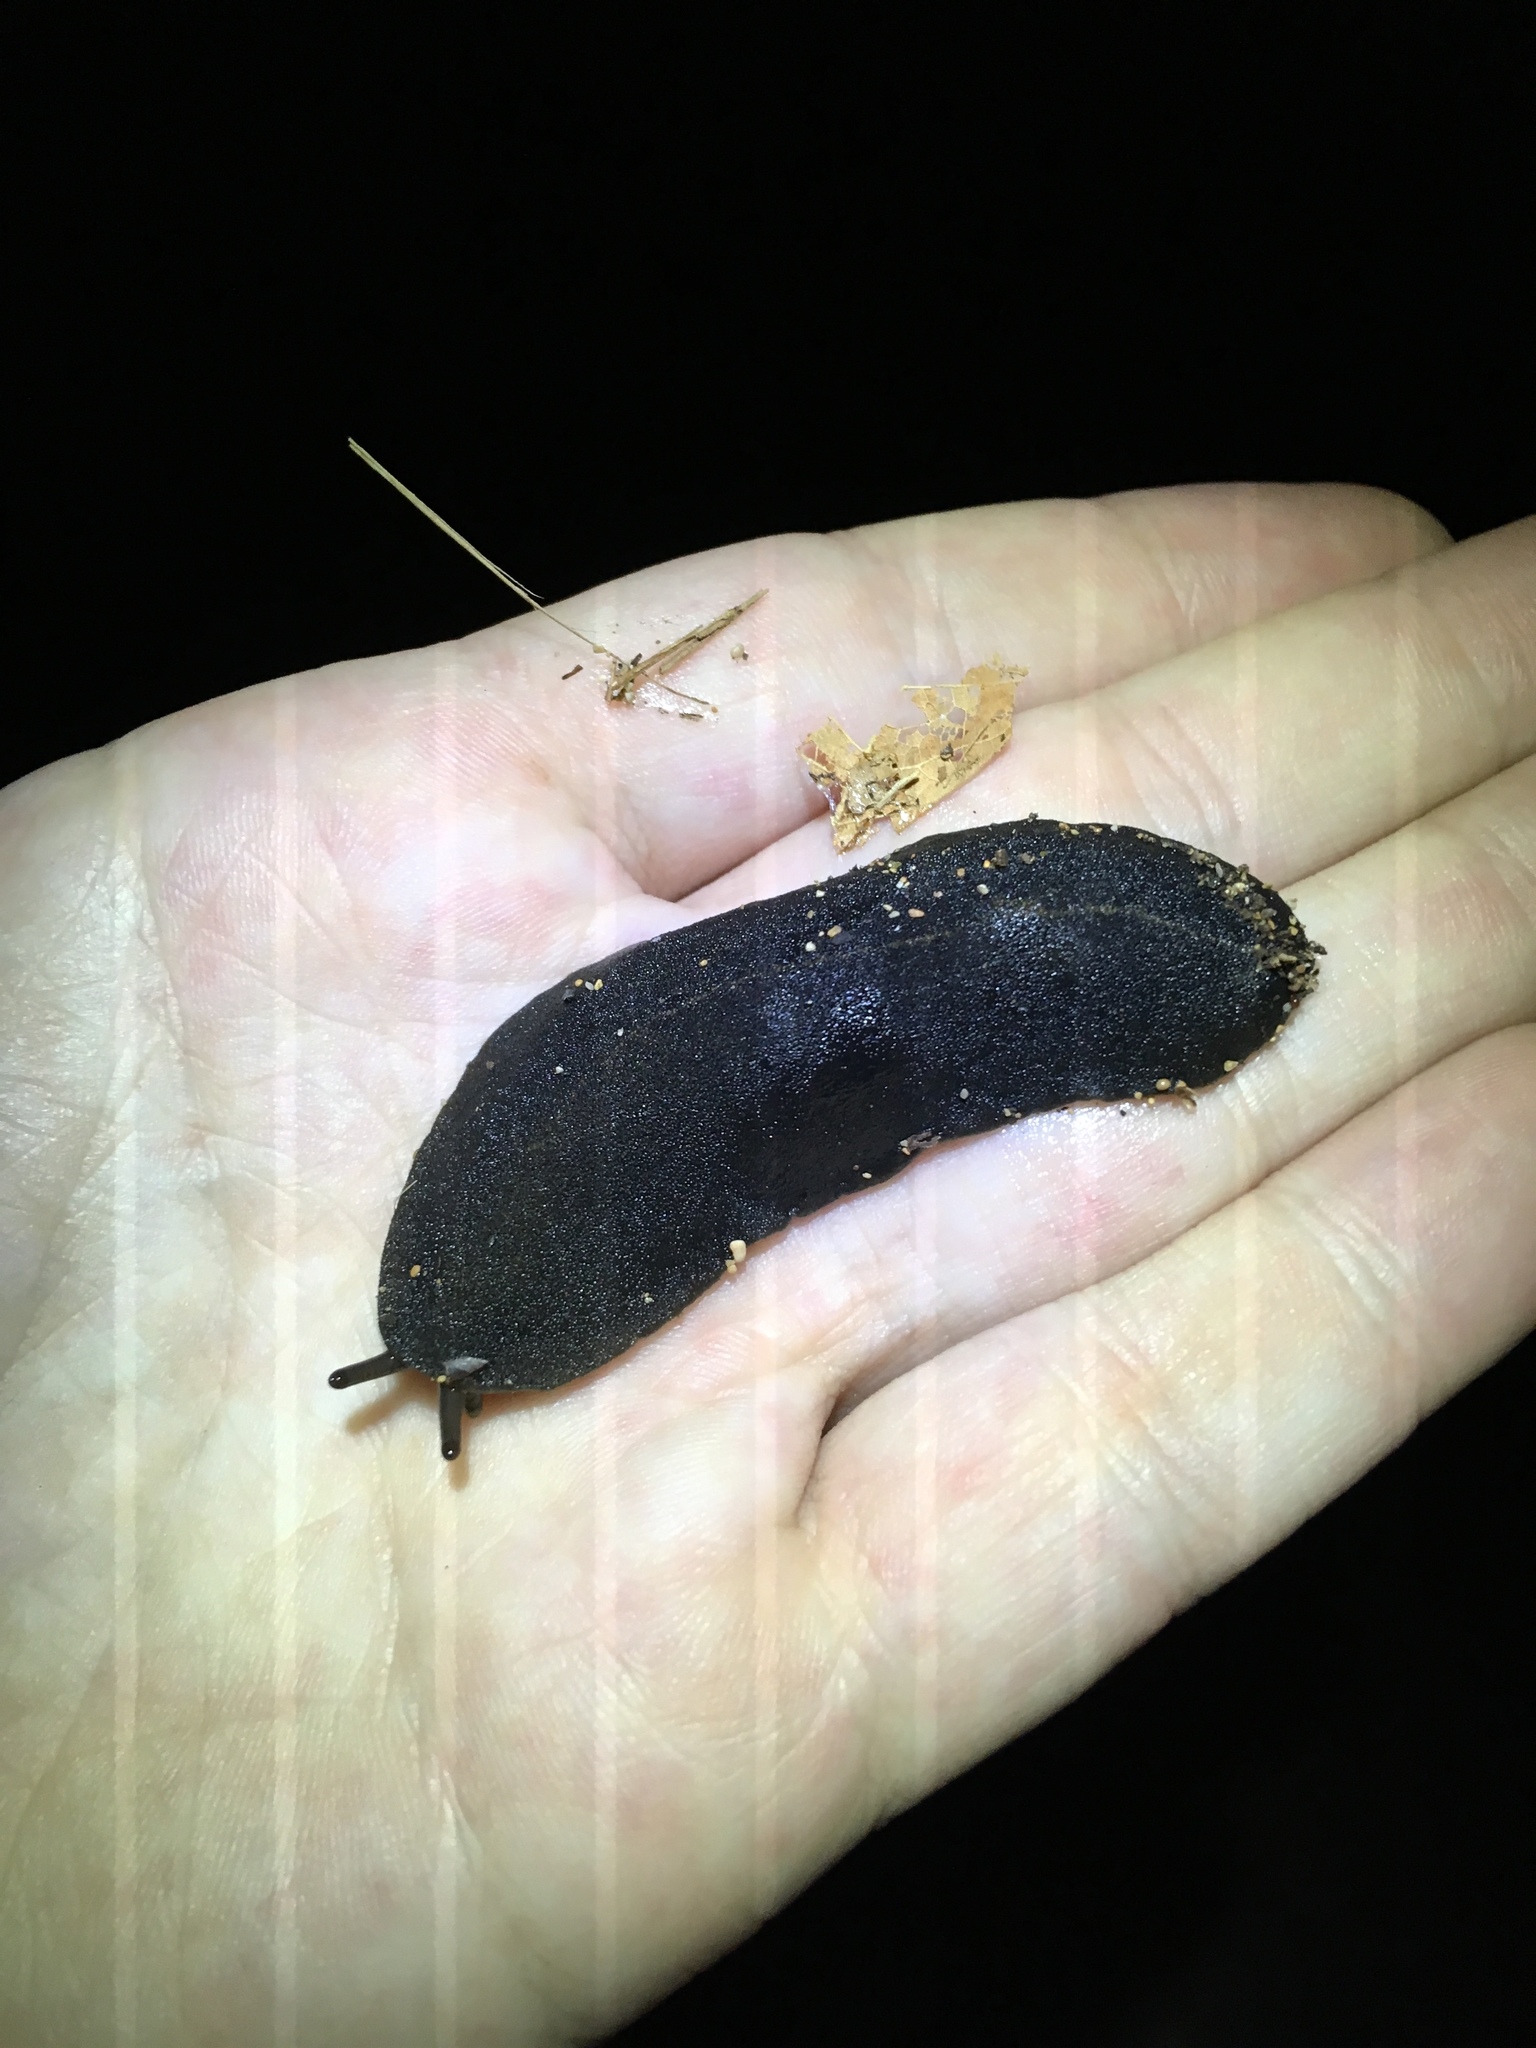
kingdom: Animalia
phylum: Mollusca
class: Gastropoda
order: Systellommatophora
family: Veronicellidae
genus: Laevicaulis
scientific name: Laevicaulis alte
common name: Tropical leatherleaf
